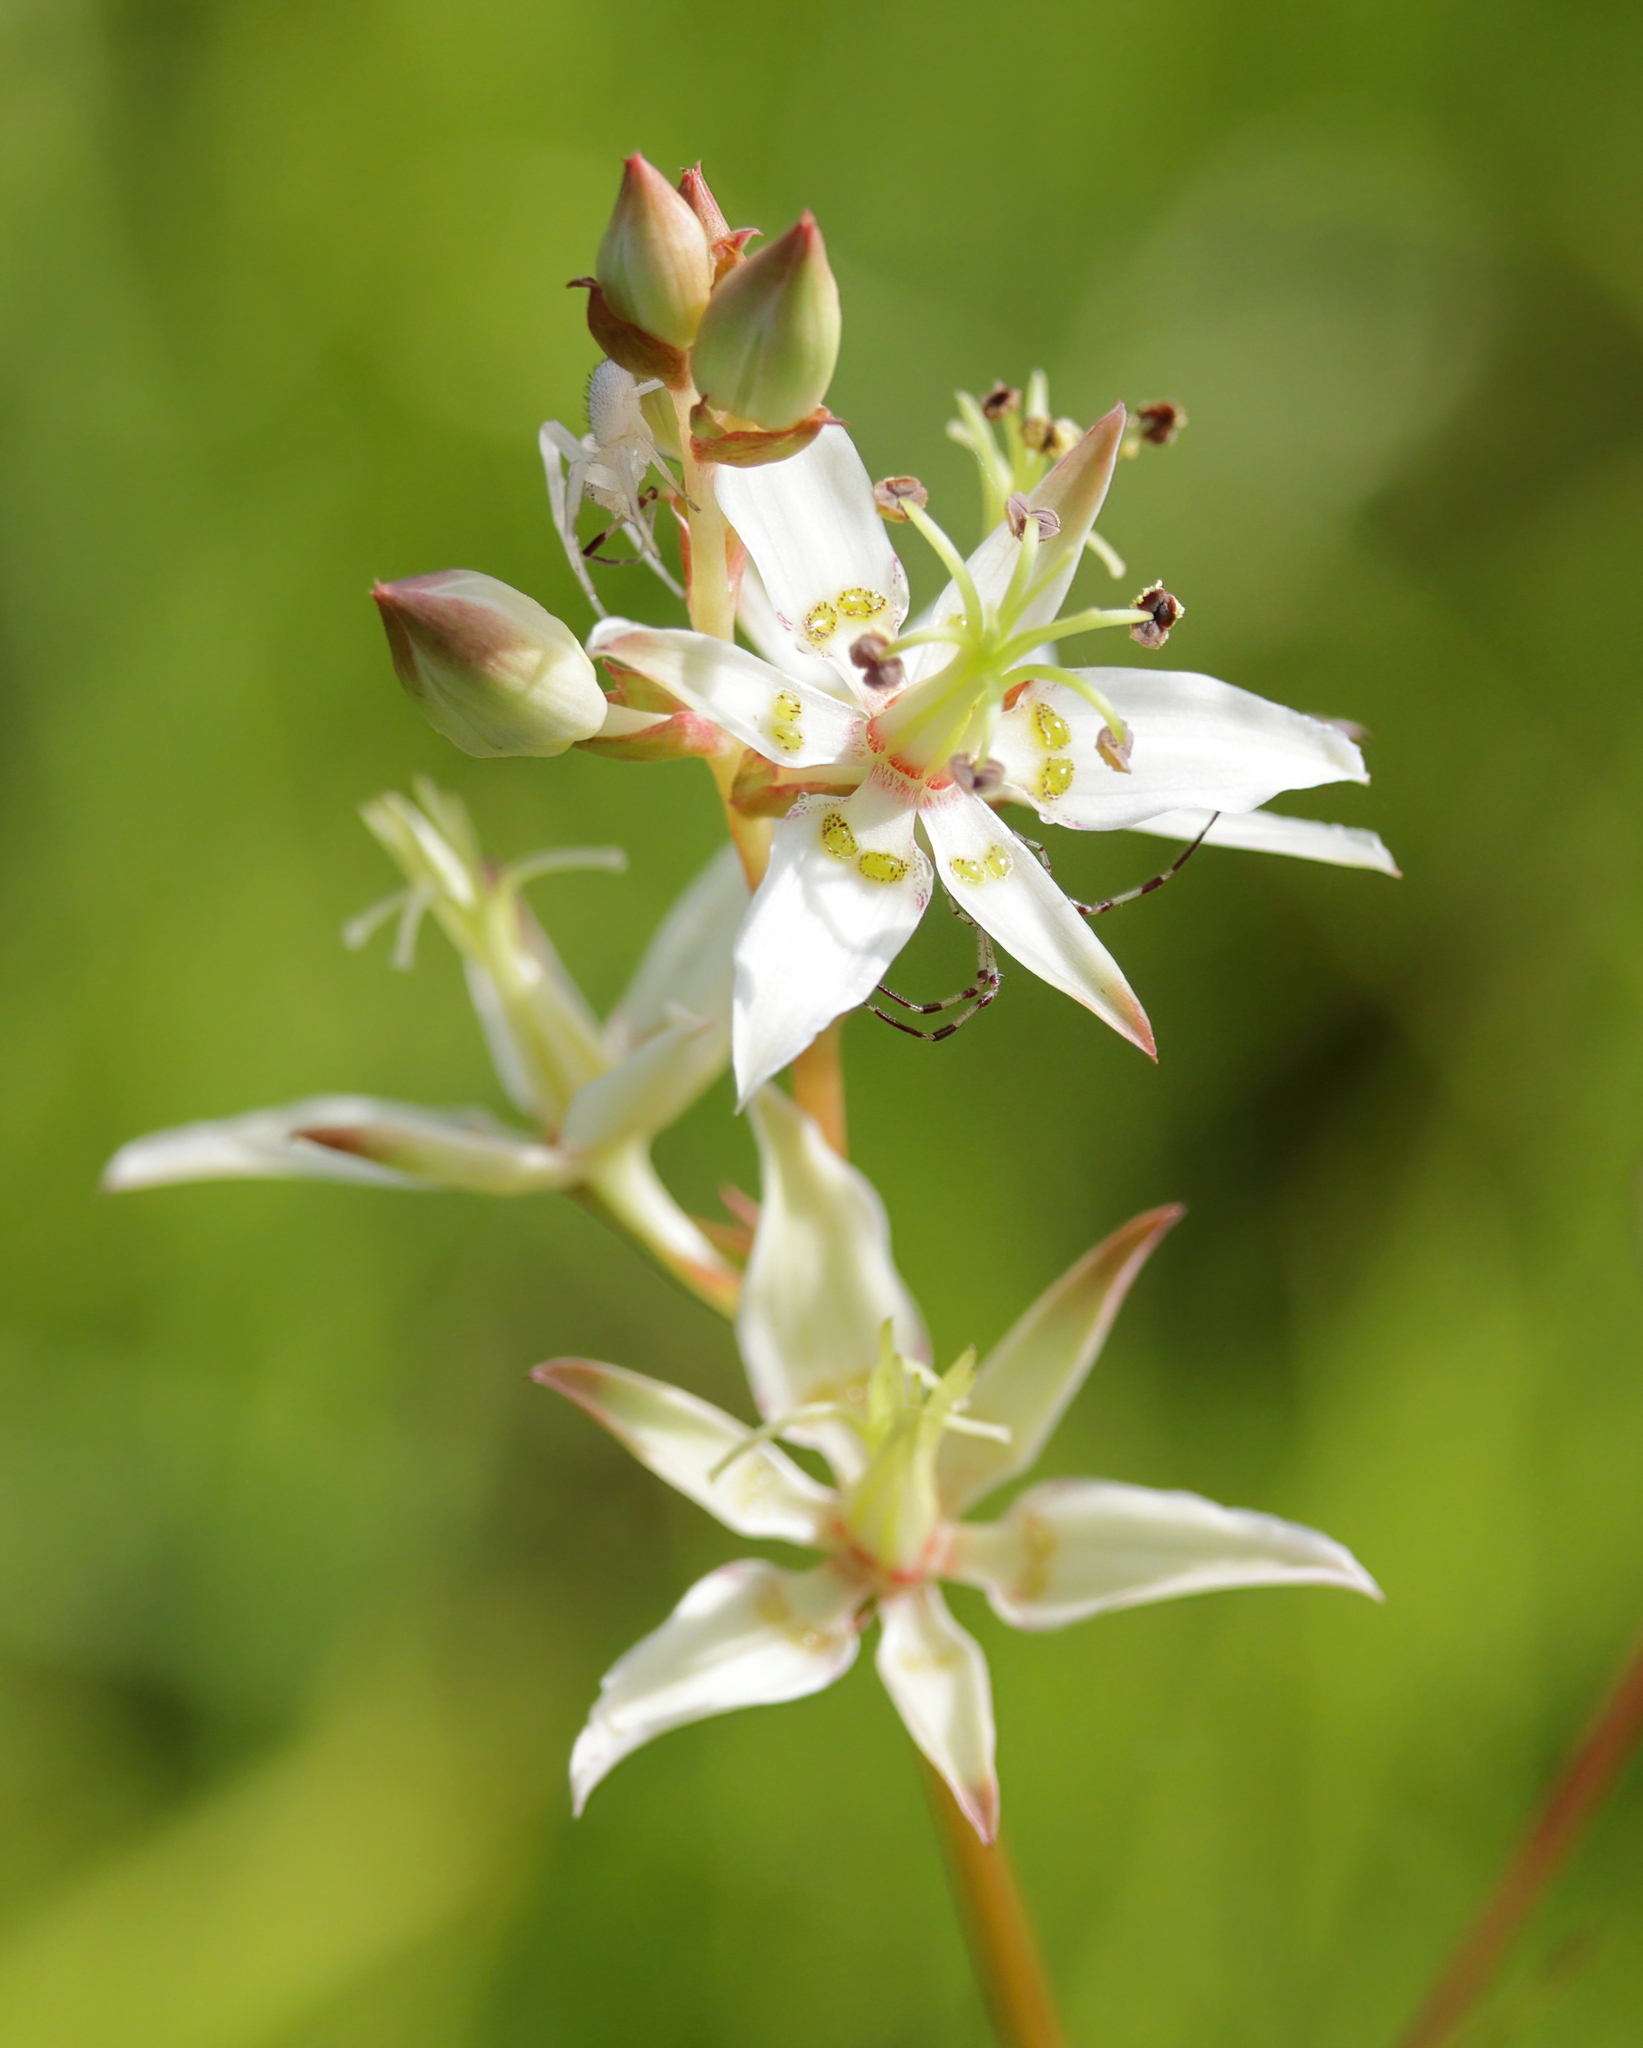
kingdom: Plantae
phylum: Tracheophyta
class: Liliopsida
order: Liliales
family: Melanthiaceae
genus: Zigadenus
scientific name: Zigadenus glaberrimus
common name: Sandbog death camas
